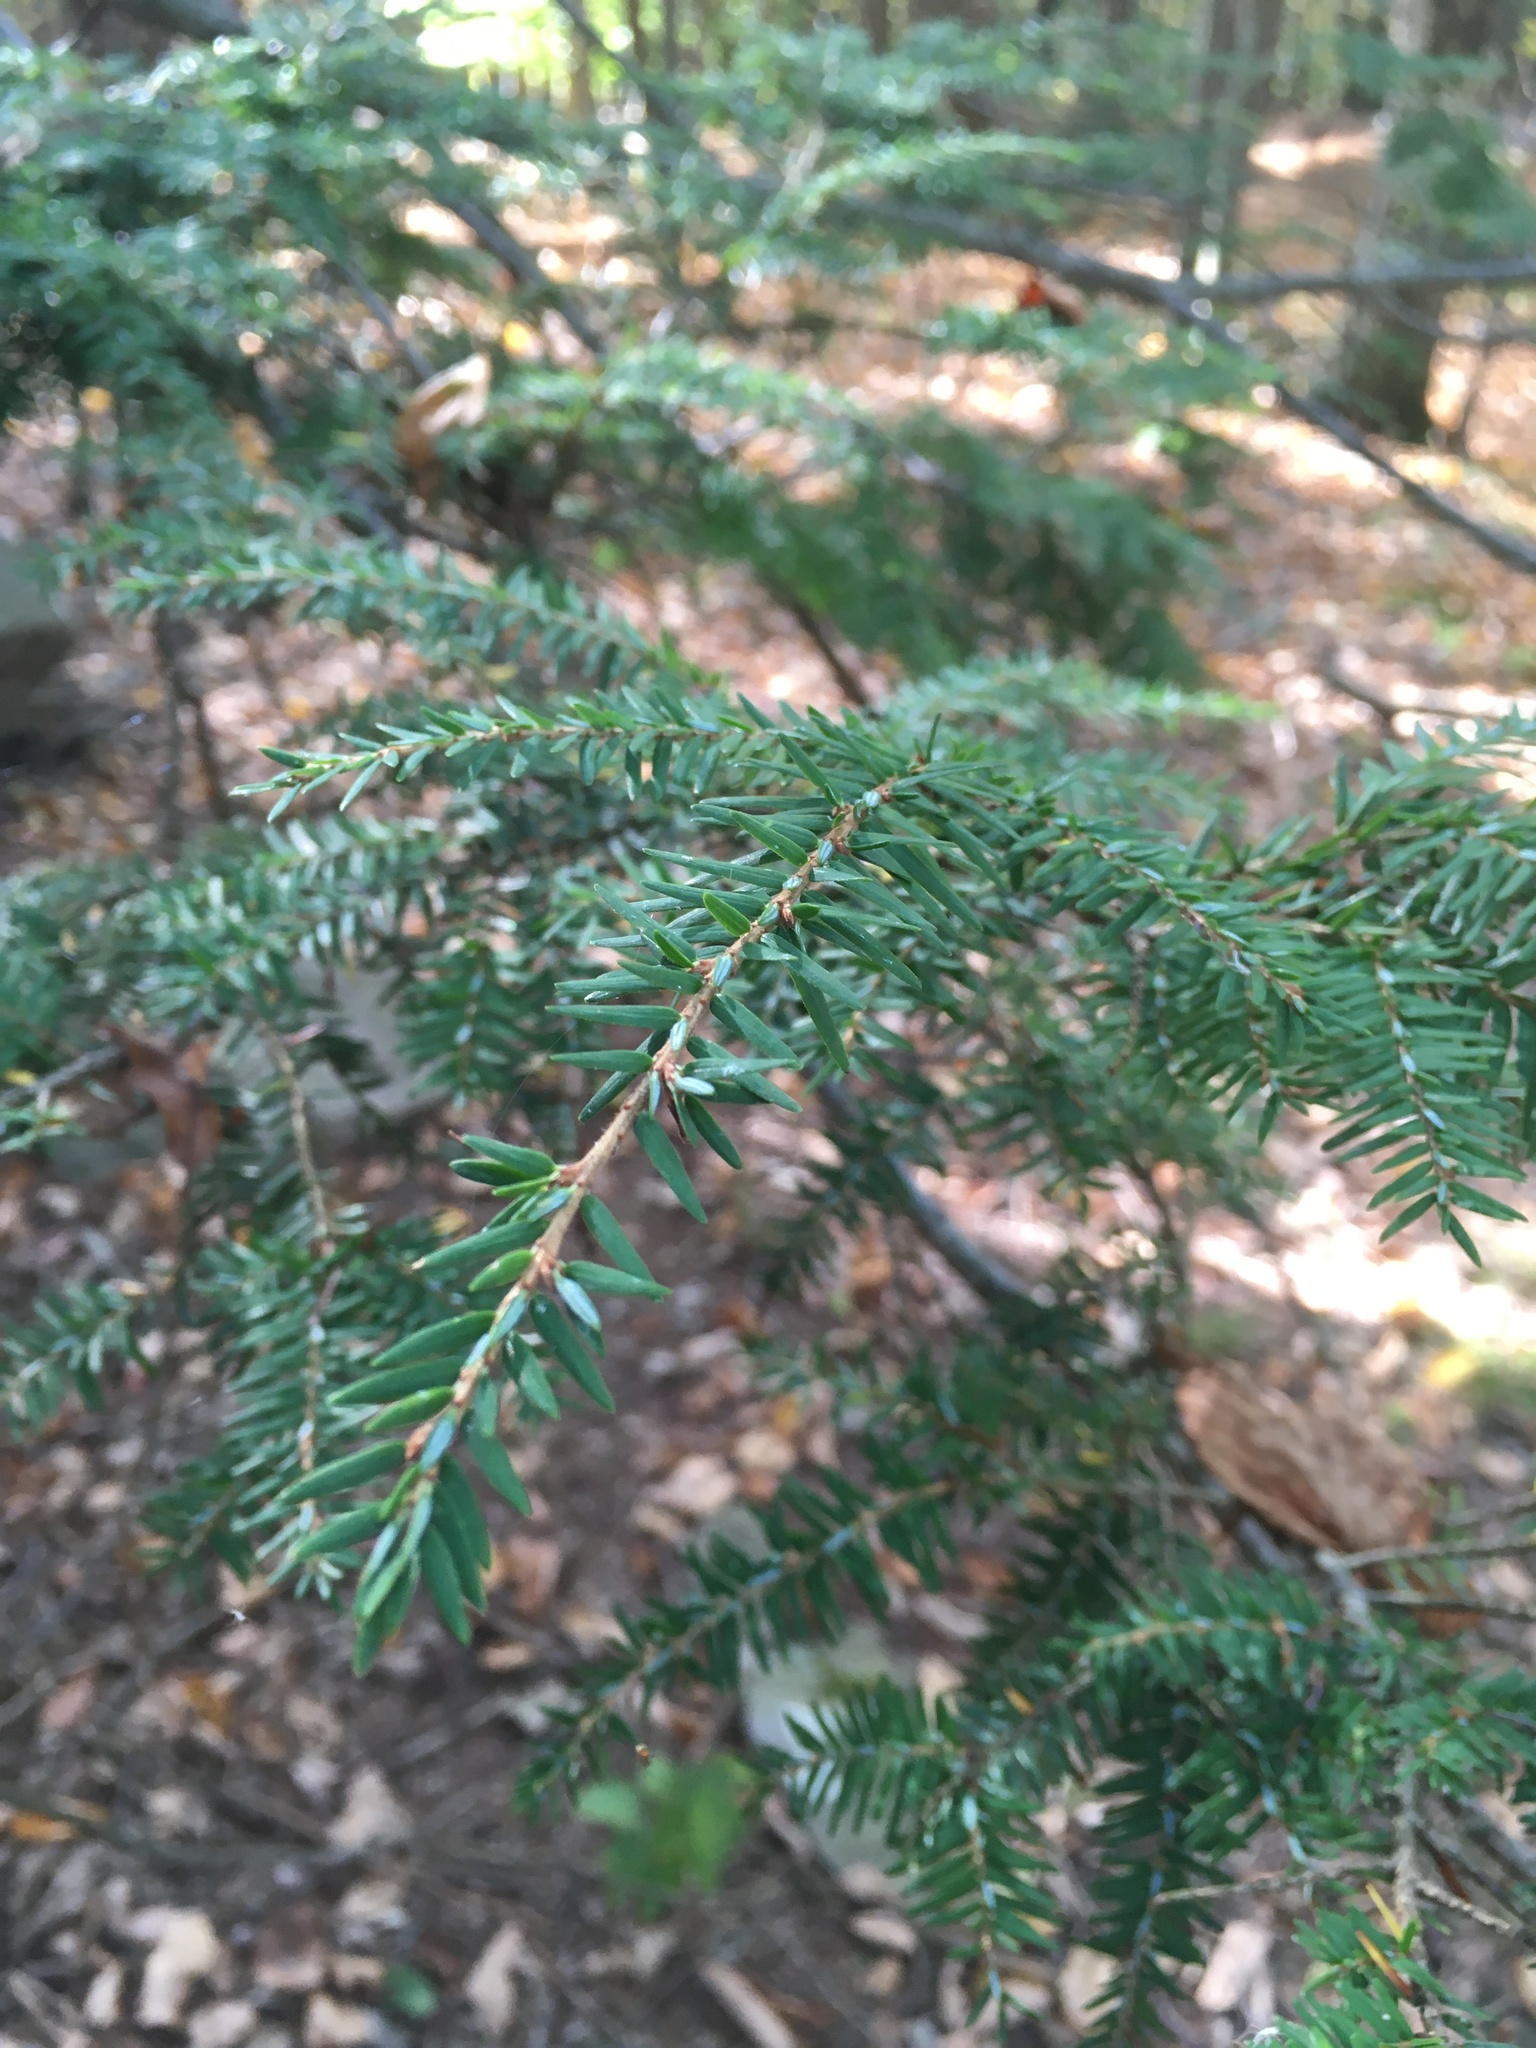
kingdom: Plantae
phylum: Tracheophyta
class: Pinopsida
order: Pinales
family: Pinaceae
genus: Tsuga
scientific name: Tsuga canadensis
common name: Eastern hemlock
